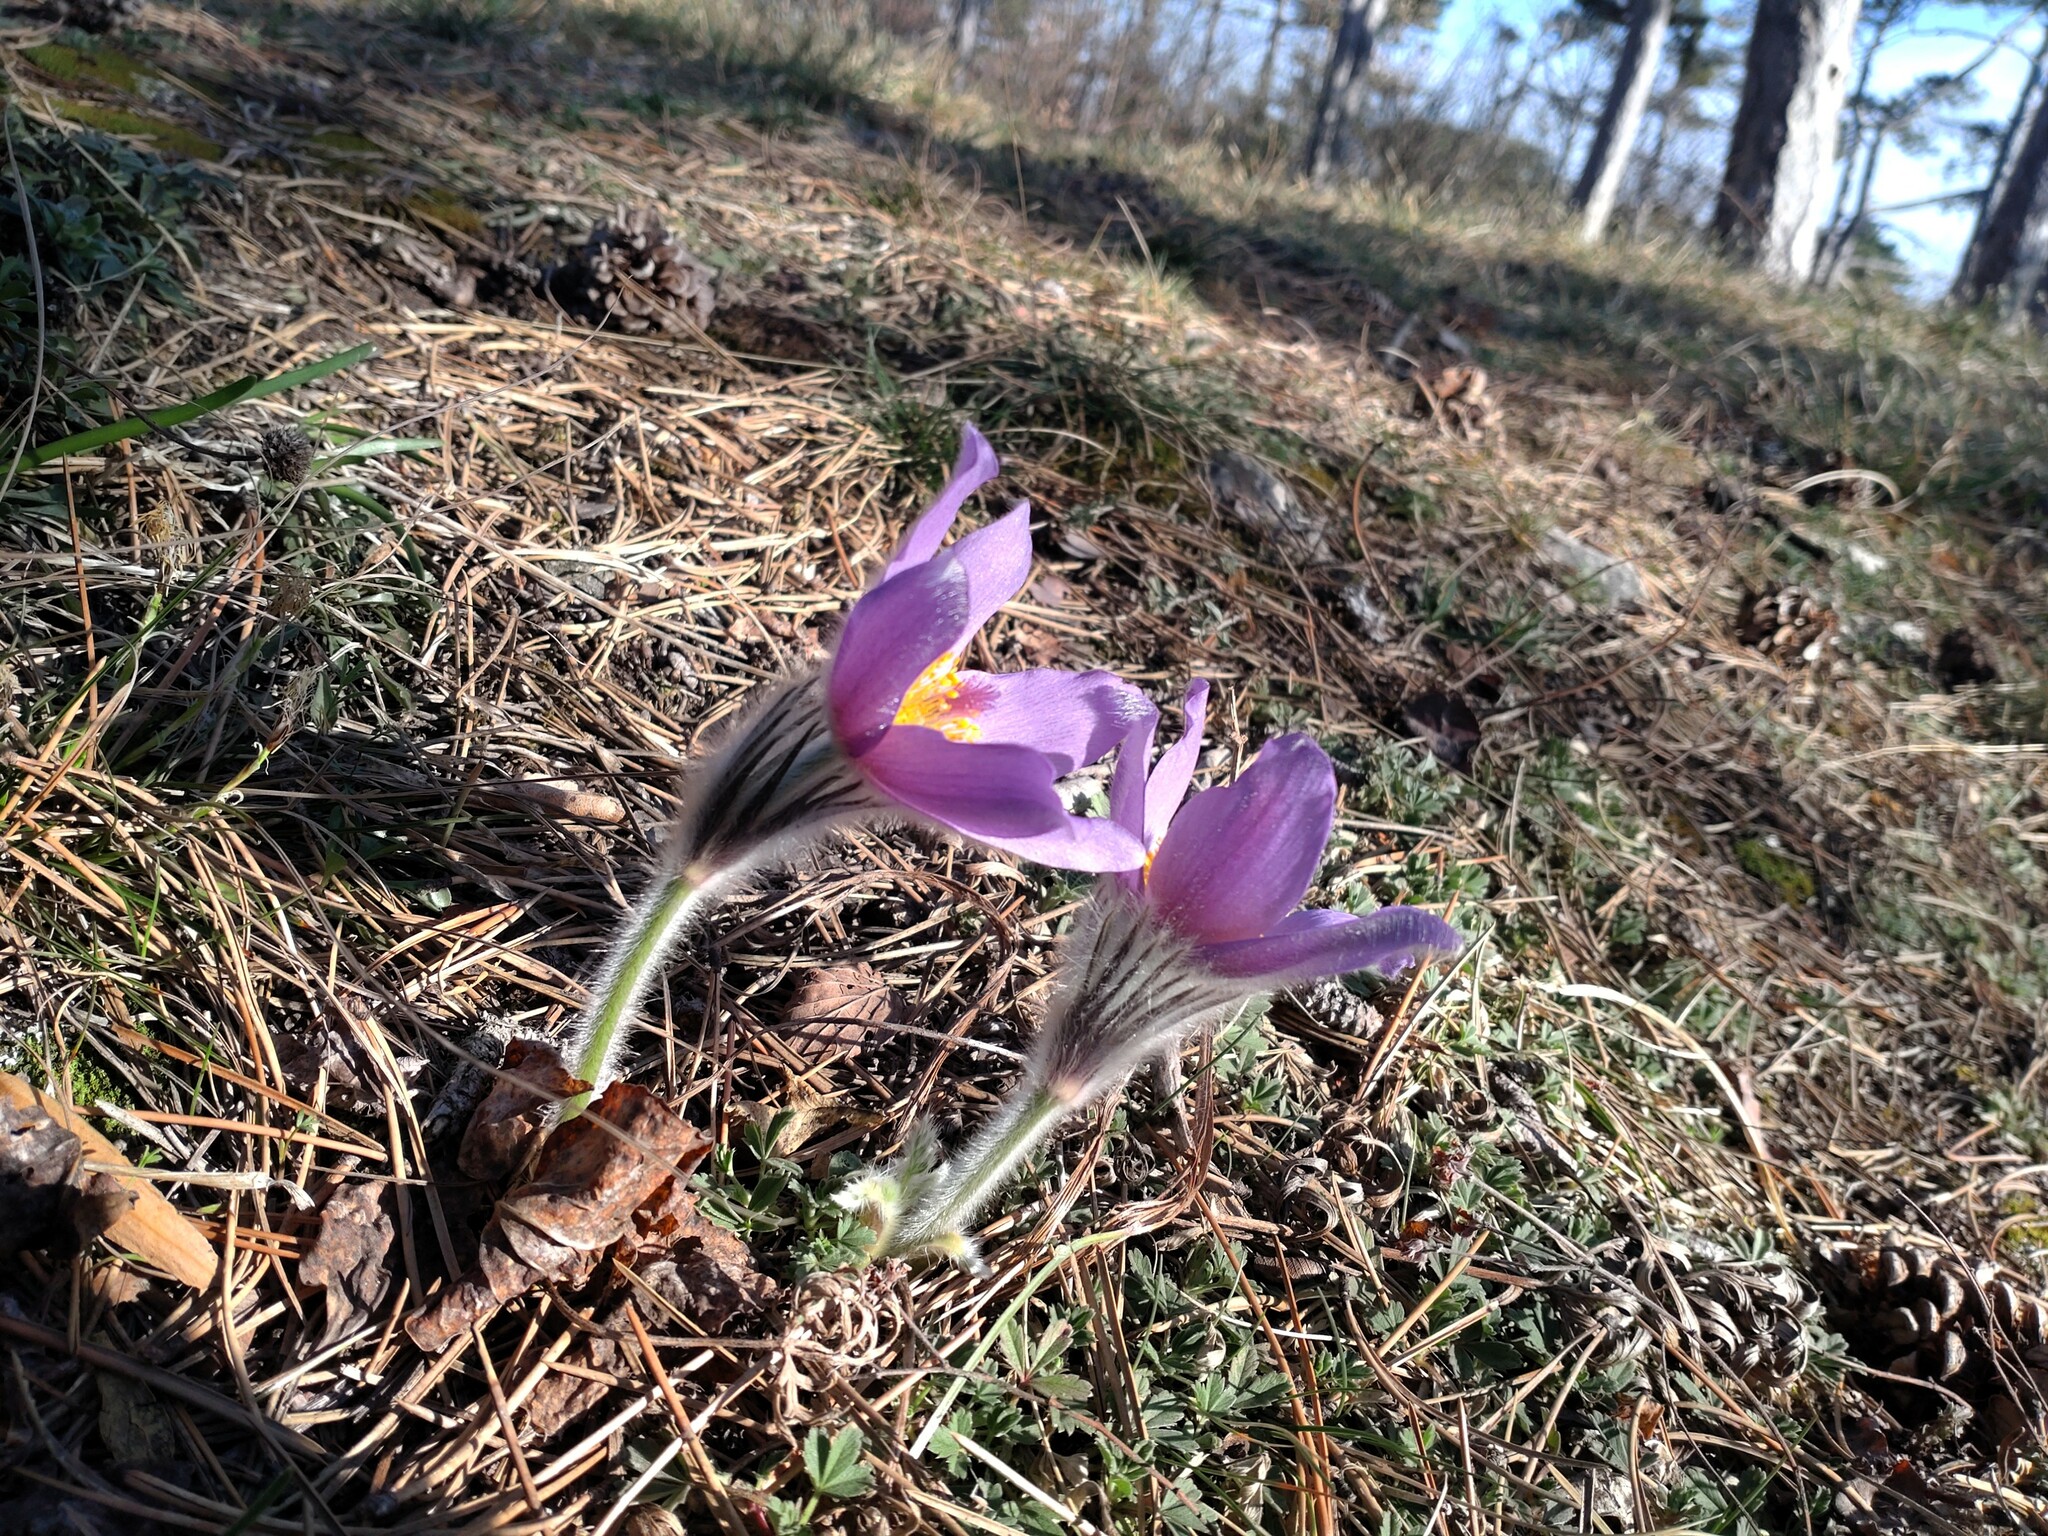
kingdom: Plantae
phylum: Tracheophyta
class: Magnoliopsida
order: Ranunculales
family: Ranunculaceae
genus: Pulsatilla
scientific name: Pulsatilla grandis
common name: Greater pasque flower
